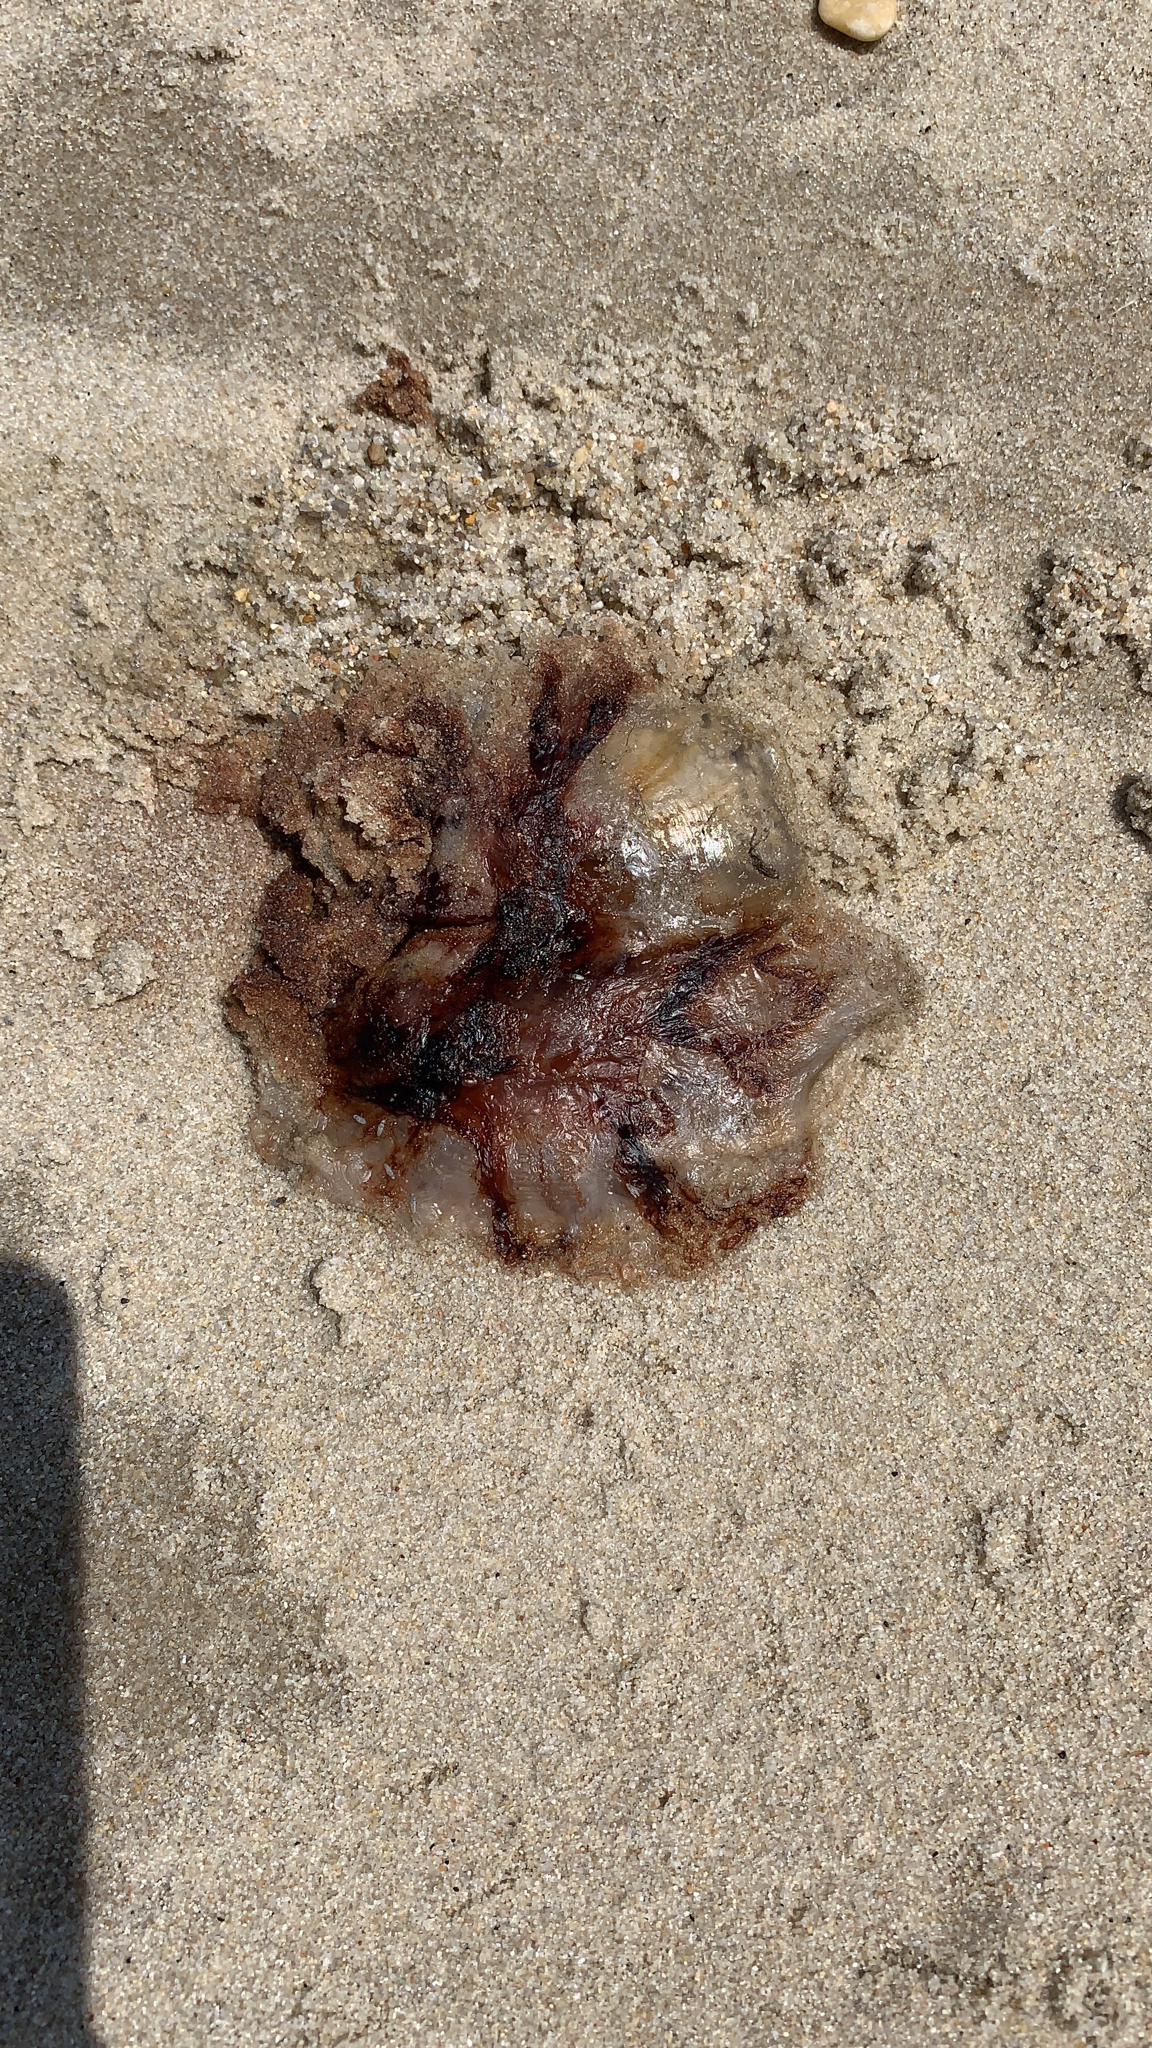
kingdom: Animalia
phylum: Cnidaria
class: Scyphozoa
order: Semaeostomeae
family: Cyaneidae
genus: Cyanea
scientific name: Cyanea versicolor
